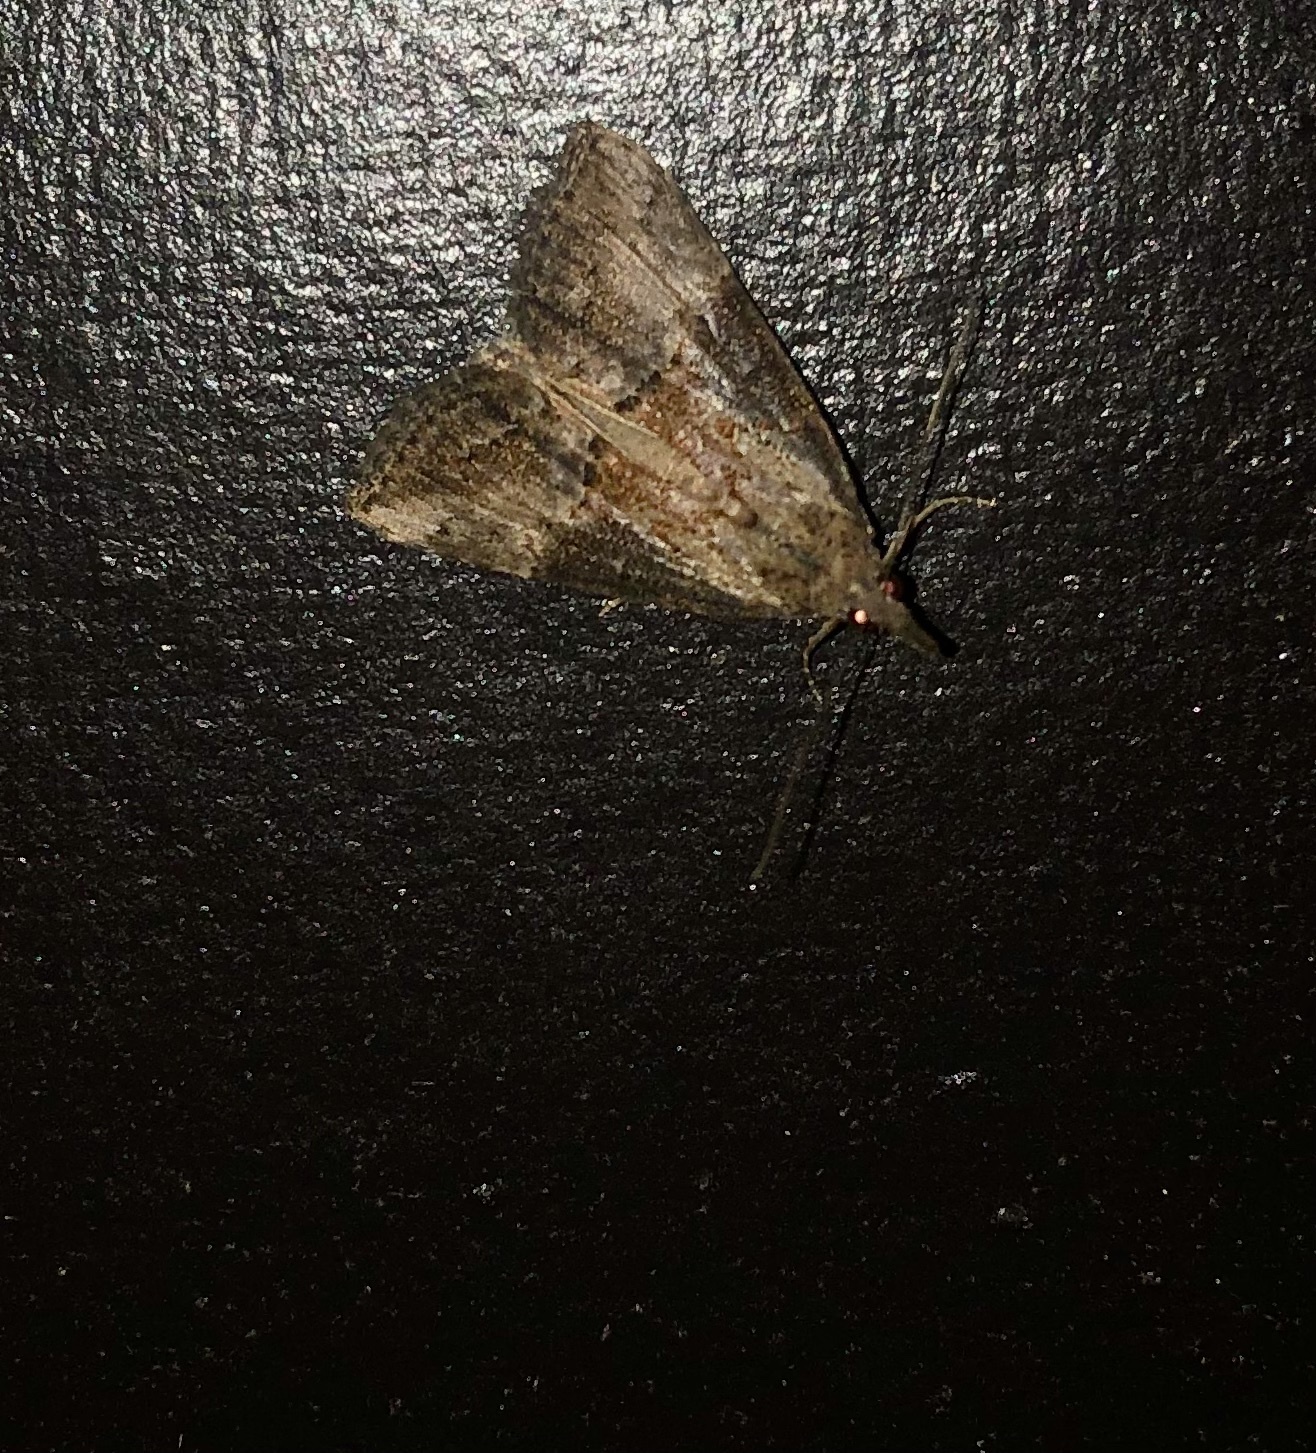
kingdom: Animalia
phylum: Arthropoda
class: Insecta
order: Lepidoptera
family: Erebidae
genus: Hypena
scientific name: Hypena scabra
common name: Green cloverworm
